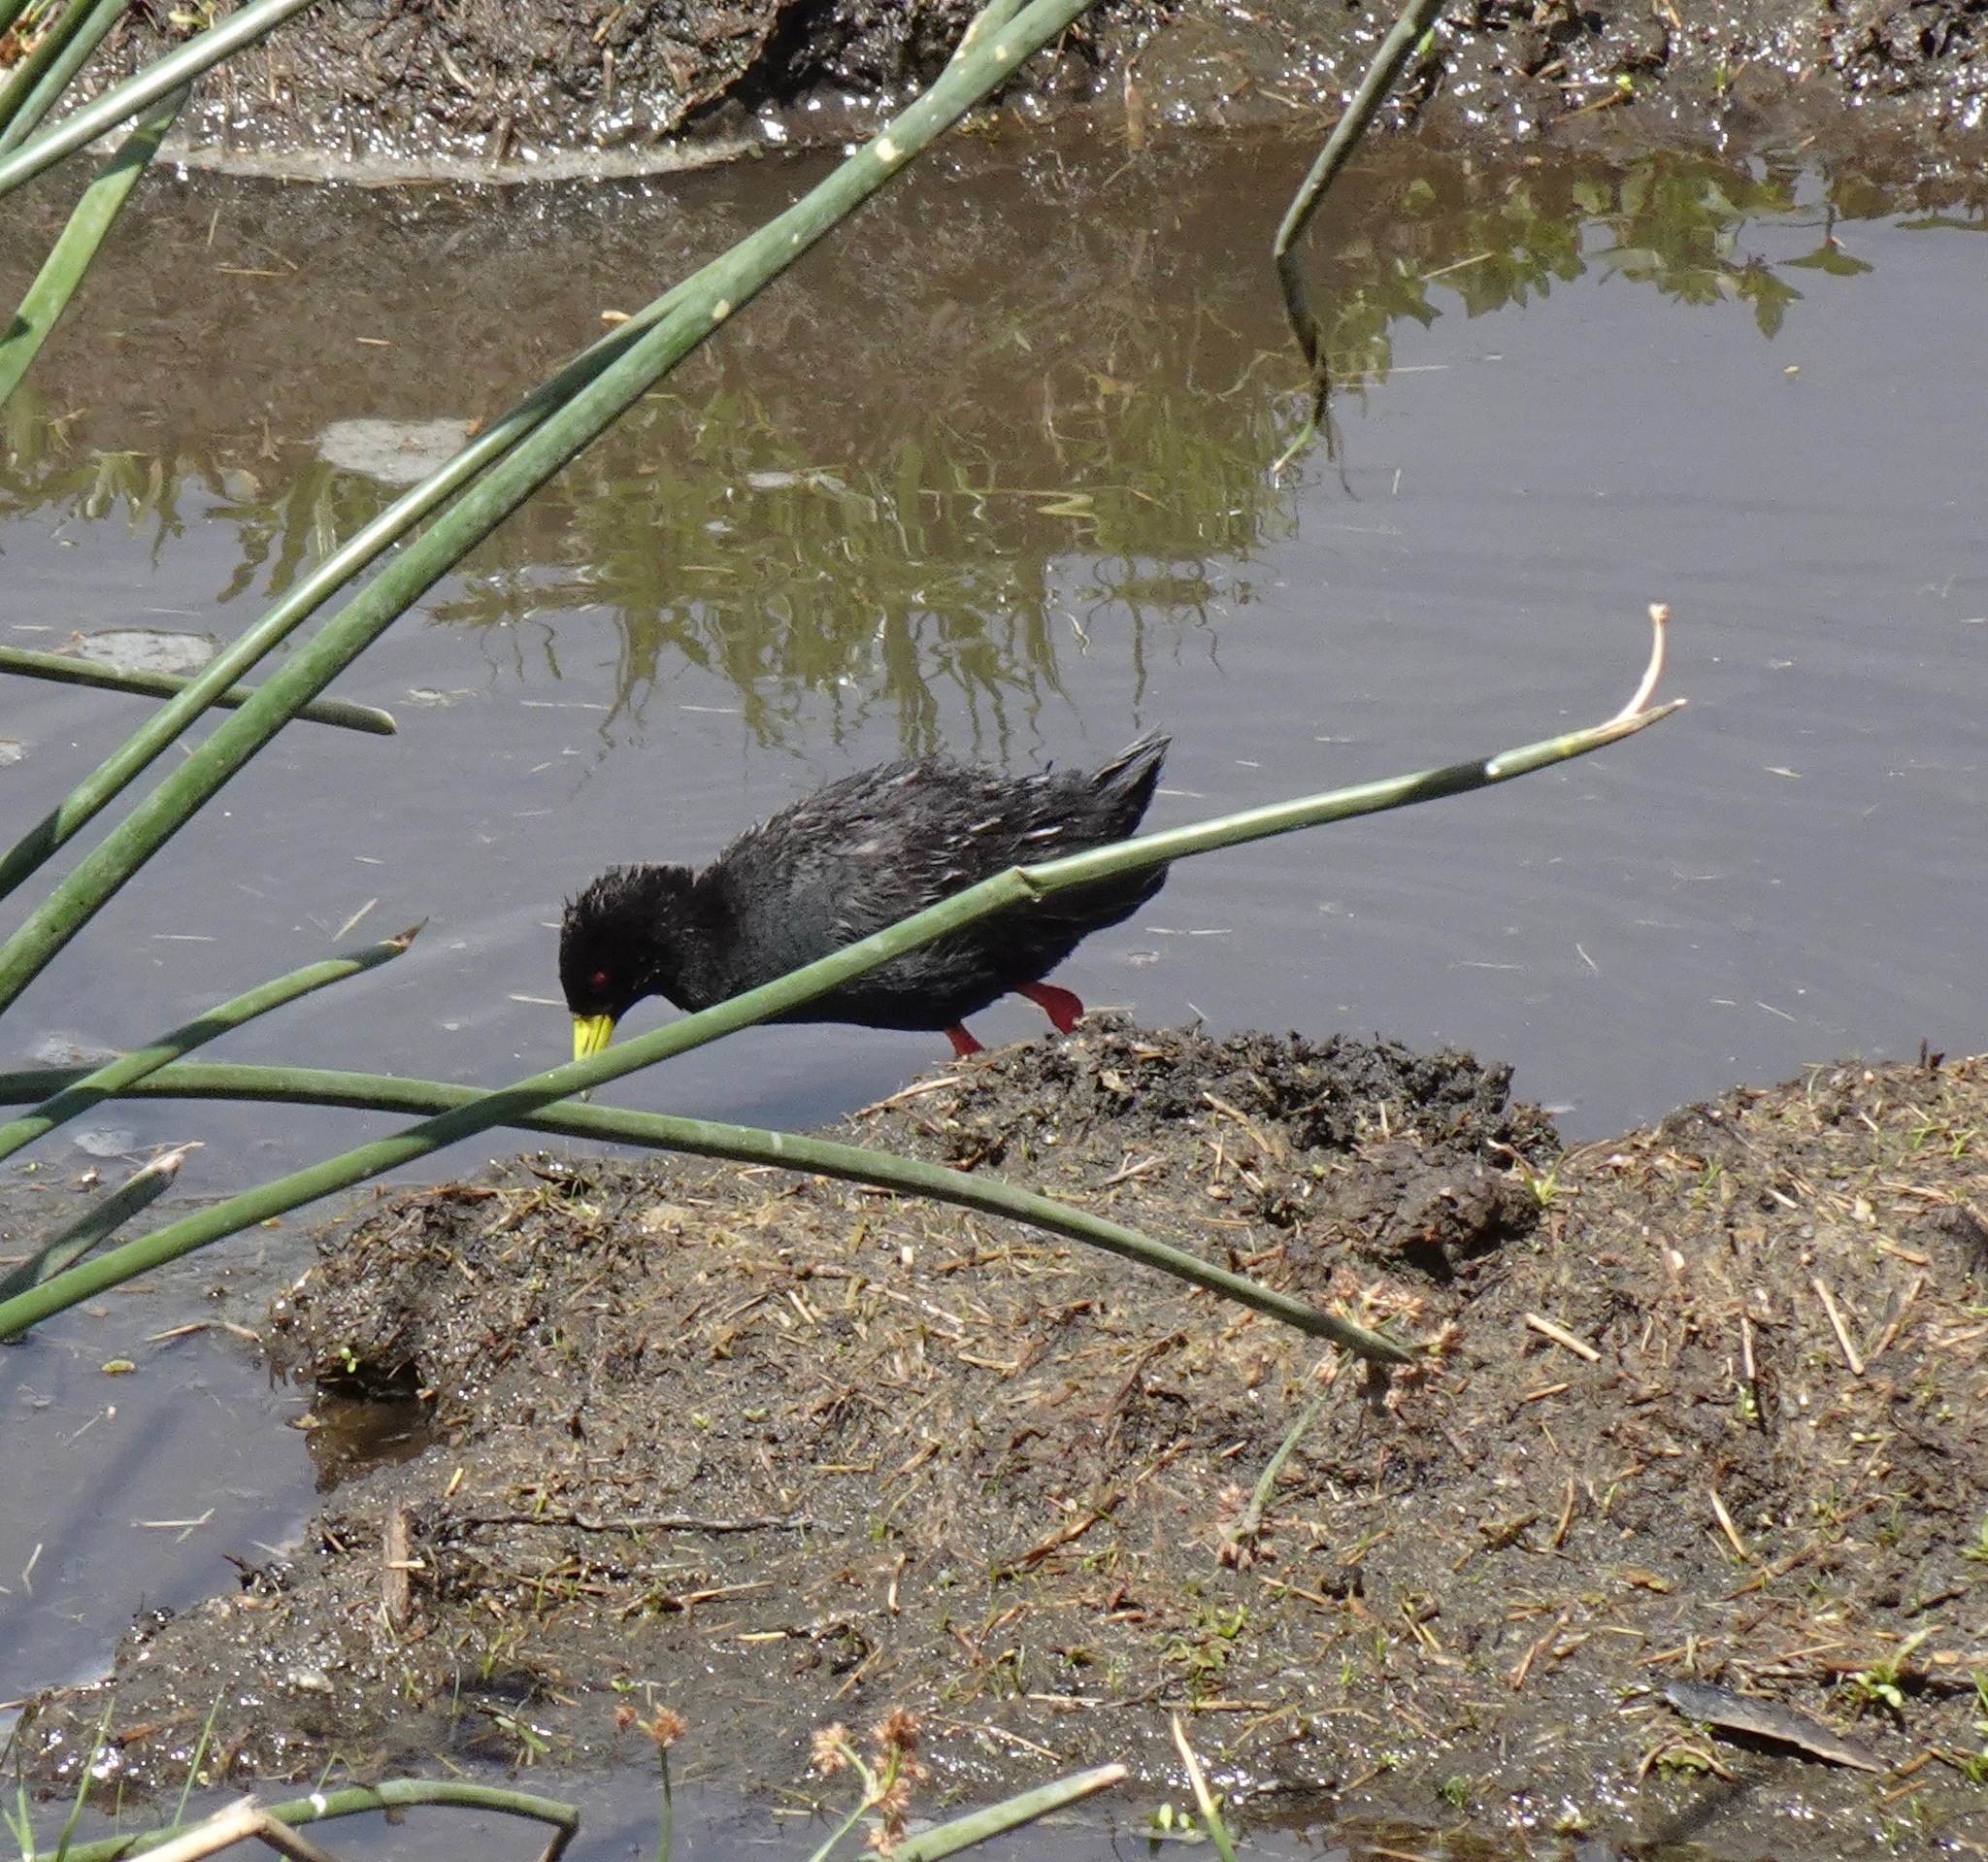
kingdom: Animalia
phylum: Chordata
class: Aves
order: Gruiformes
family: Rallidae
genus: Amaurornis
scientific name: Amaurornis flavirostra
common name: Black crake
